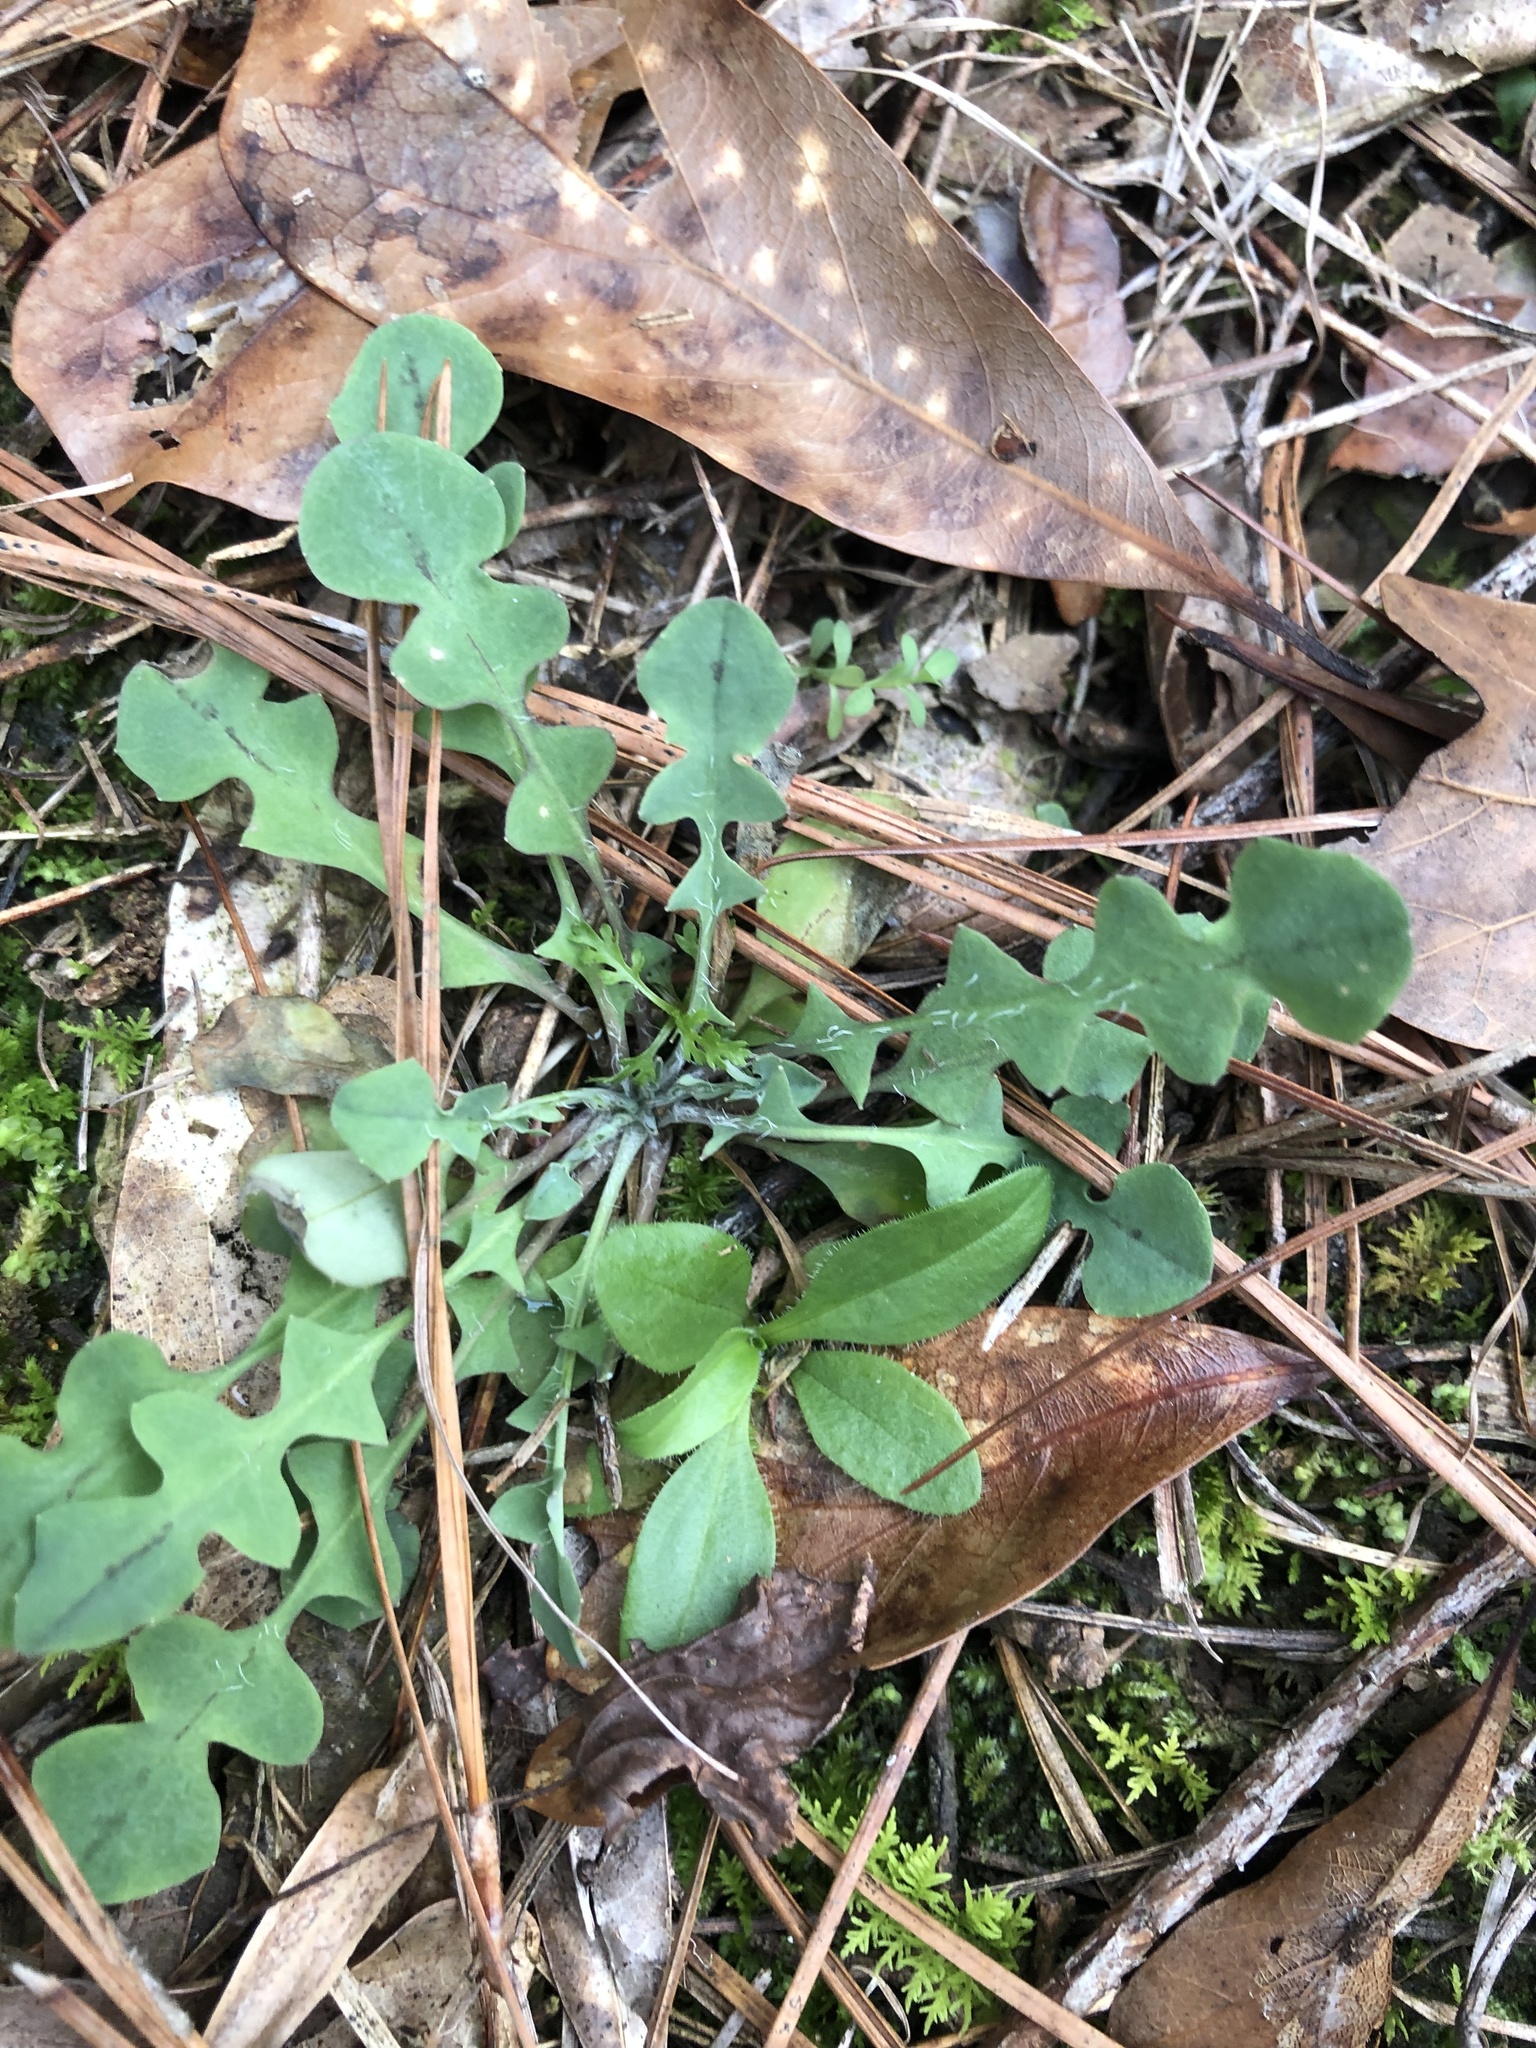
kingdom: Plantae
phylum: Tracheophyta
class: Magnoliopsida
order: Asterales
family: Asteraceae
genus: Krigia
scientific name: Krigia virginica
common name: Virginia dwarf-dandelion
